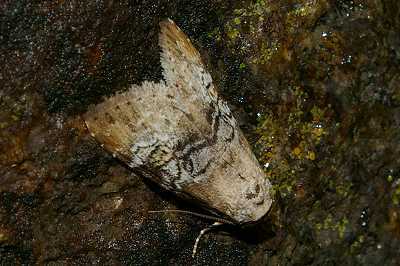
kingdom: Animalia
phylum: Arthropoda
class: Insecta
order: Lepidoptera
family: Erebidae
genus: Chorsia
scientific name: Chorsia mollicula
